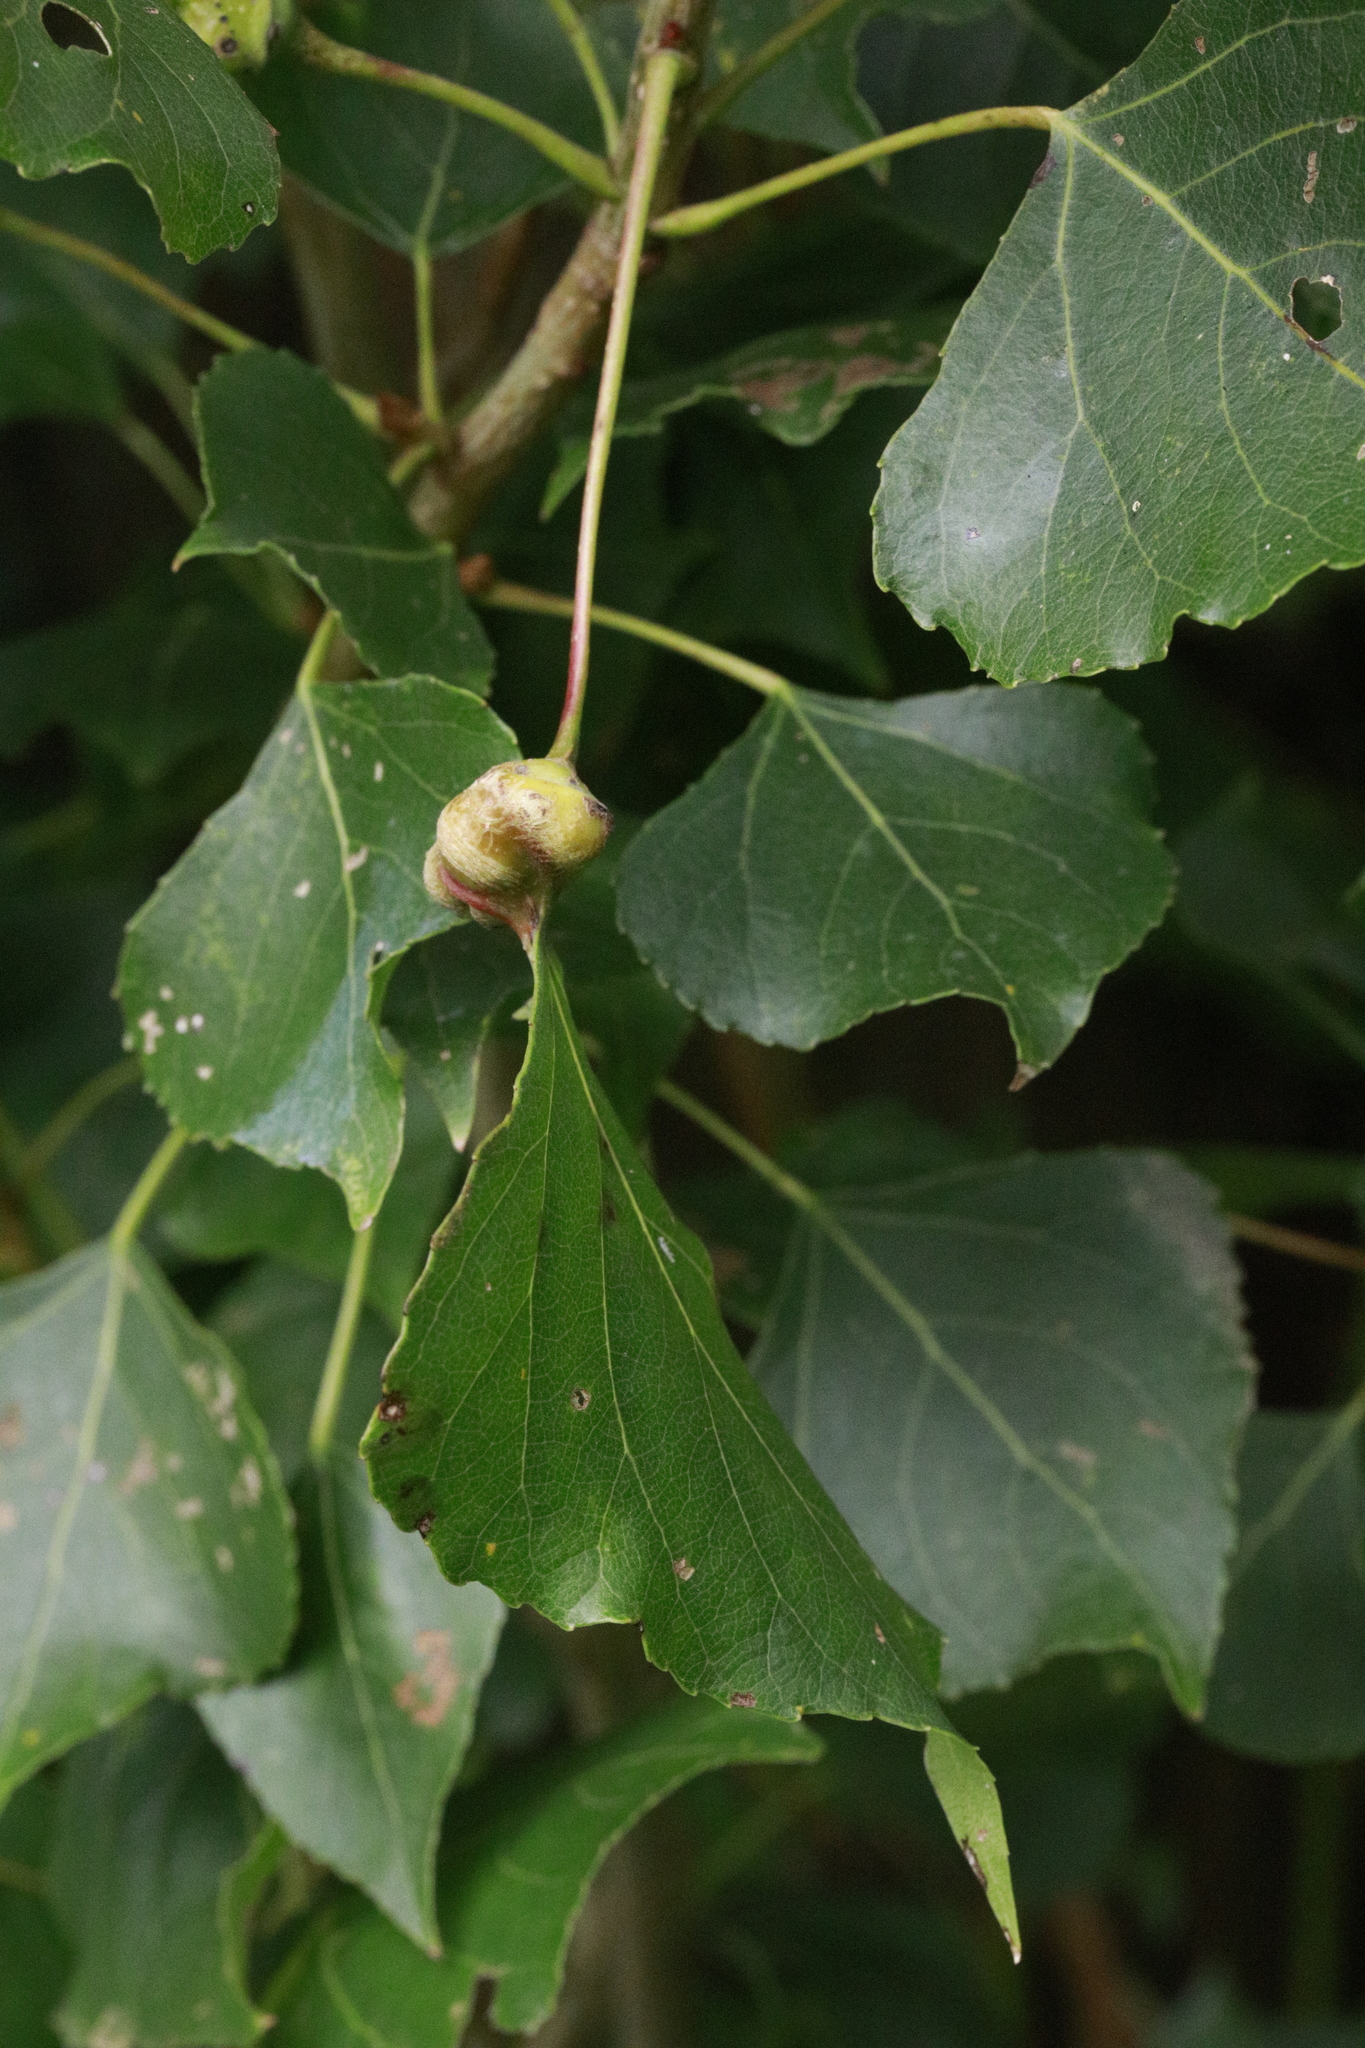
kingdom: Animalia
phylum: Arthropoda
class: Insecta
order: Hemiptera
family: Aphididae
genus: Pemphigus
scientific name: Pemphigus spyrothecae
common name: Aphid
